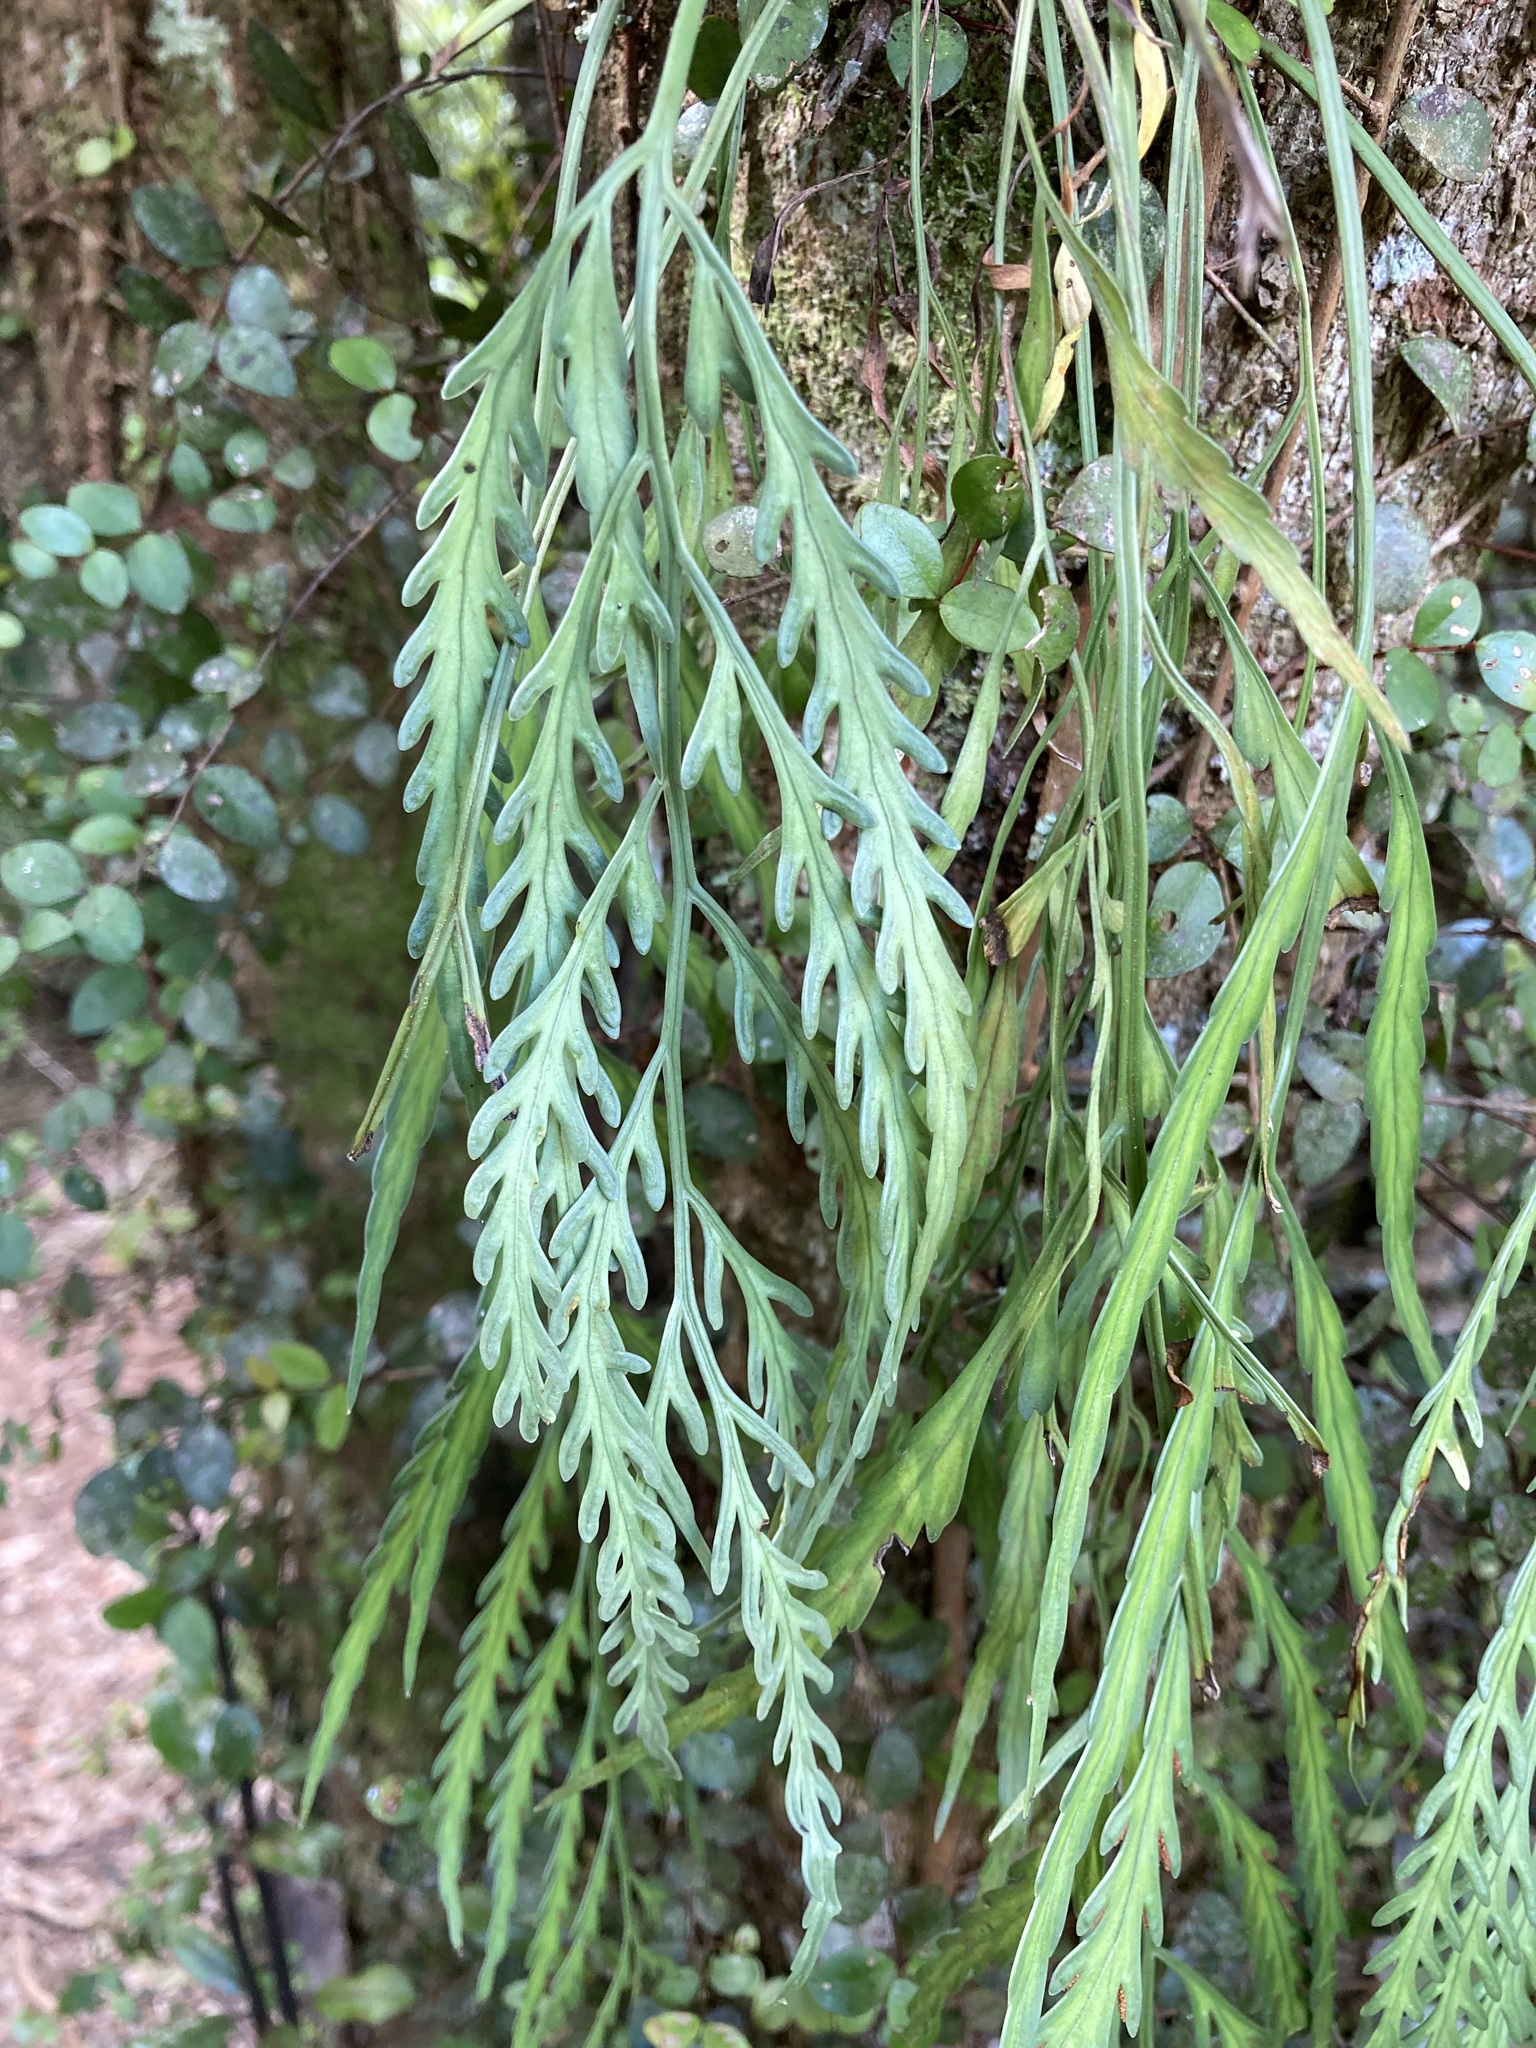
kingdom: Plantae
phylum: Tracheophyta
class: Polypodiopsida
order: Polypodiales
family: Aspleniaceae
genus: Asplenium
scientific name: Asplenium flaccidum
